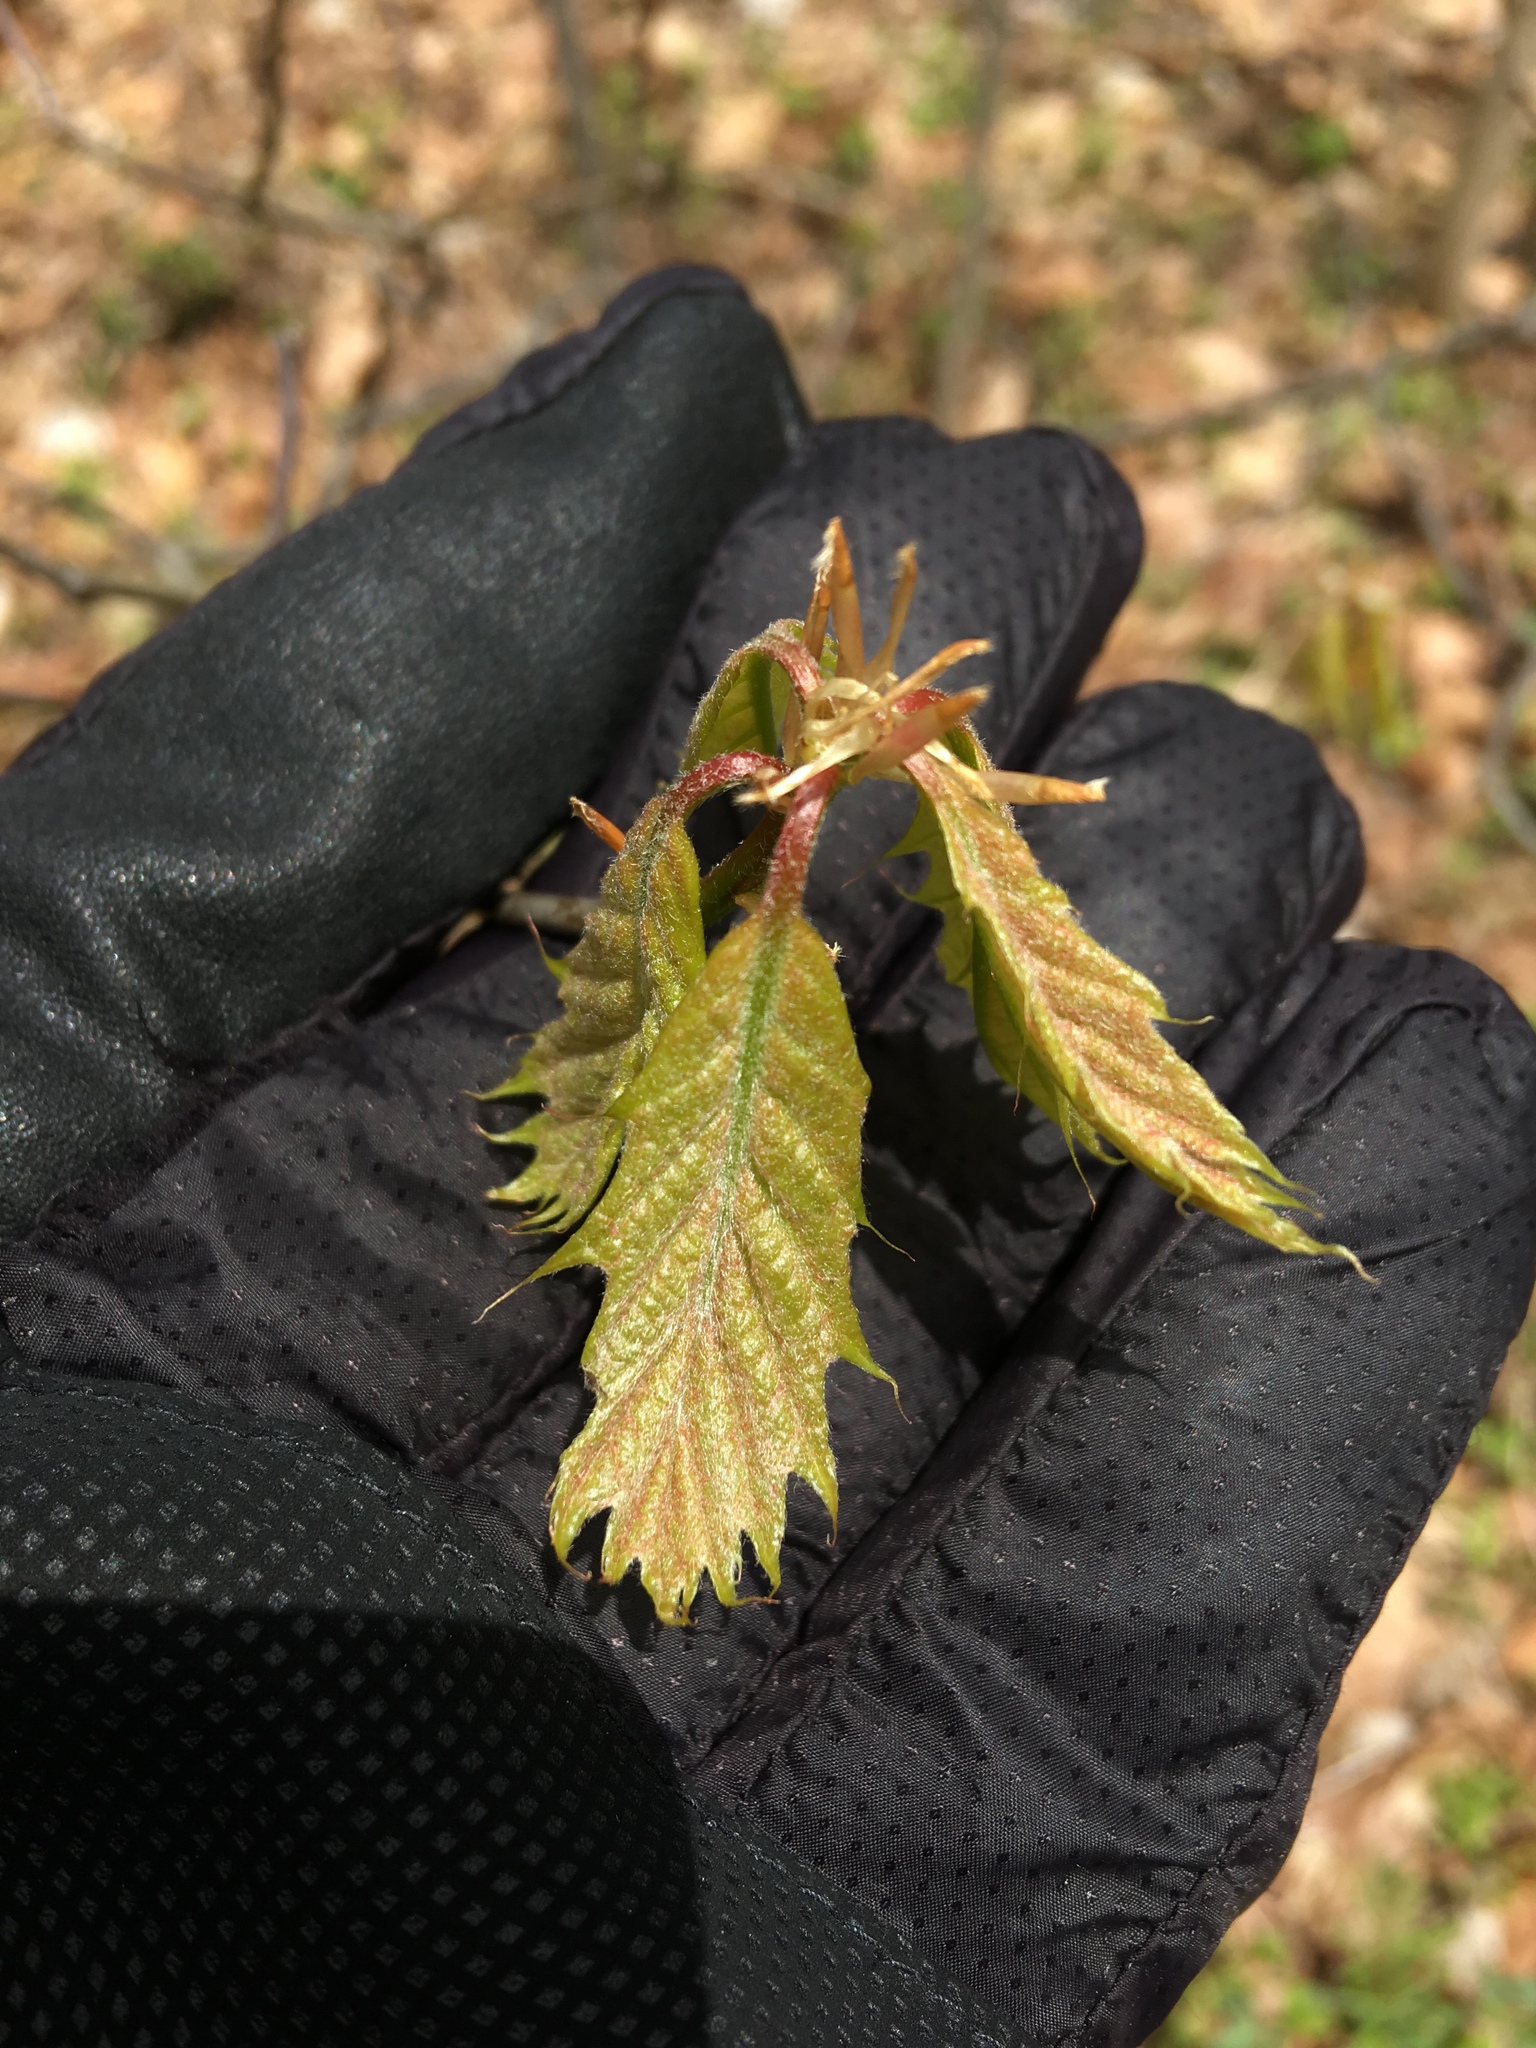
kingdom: Plantae
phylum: Tracheophyta
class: Magnoliopsida
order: Fagales
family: Fagaceae
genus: Quercus
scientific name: Quercus
